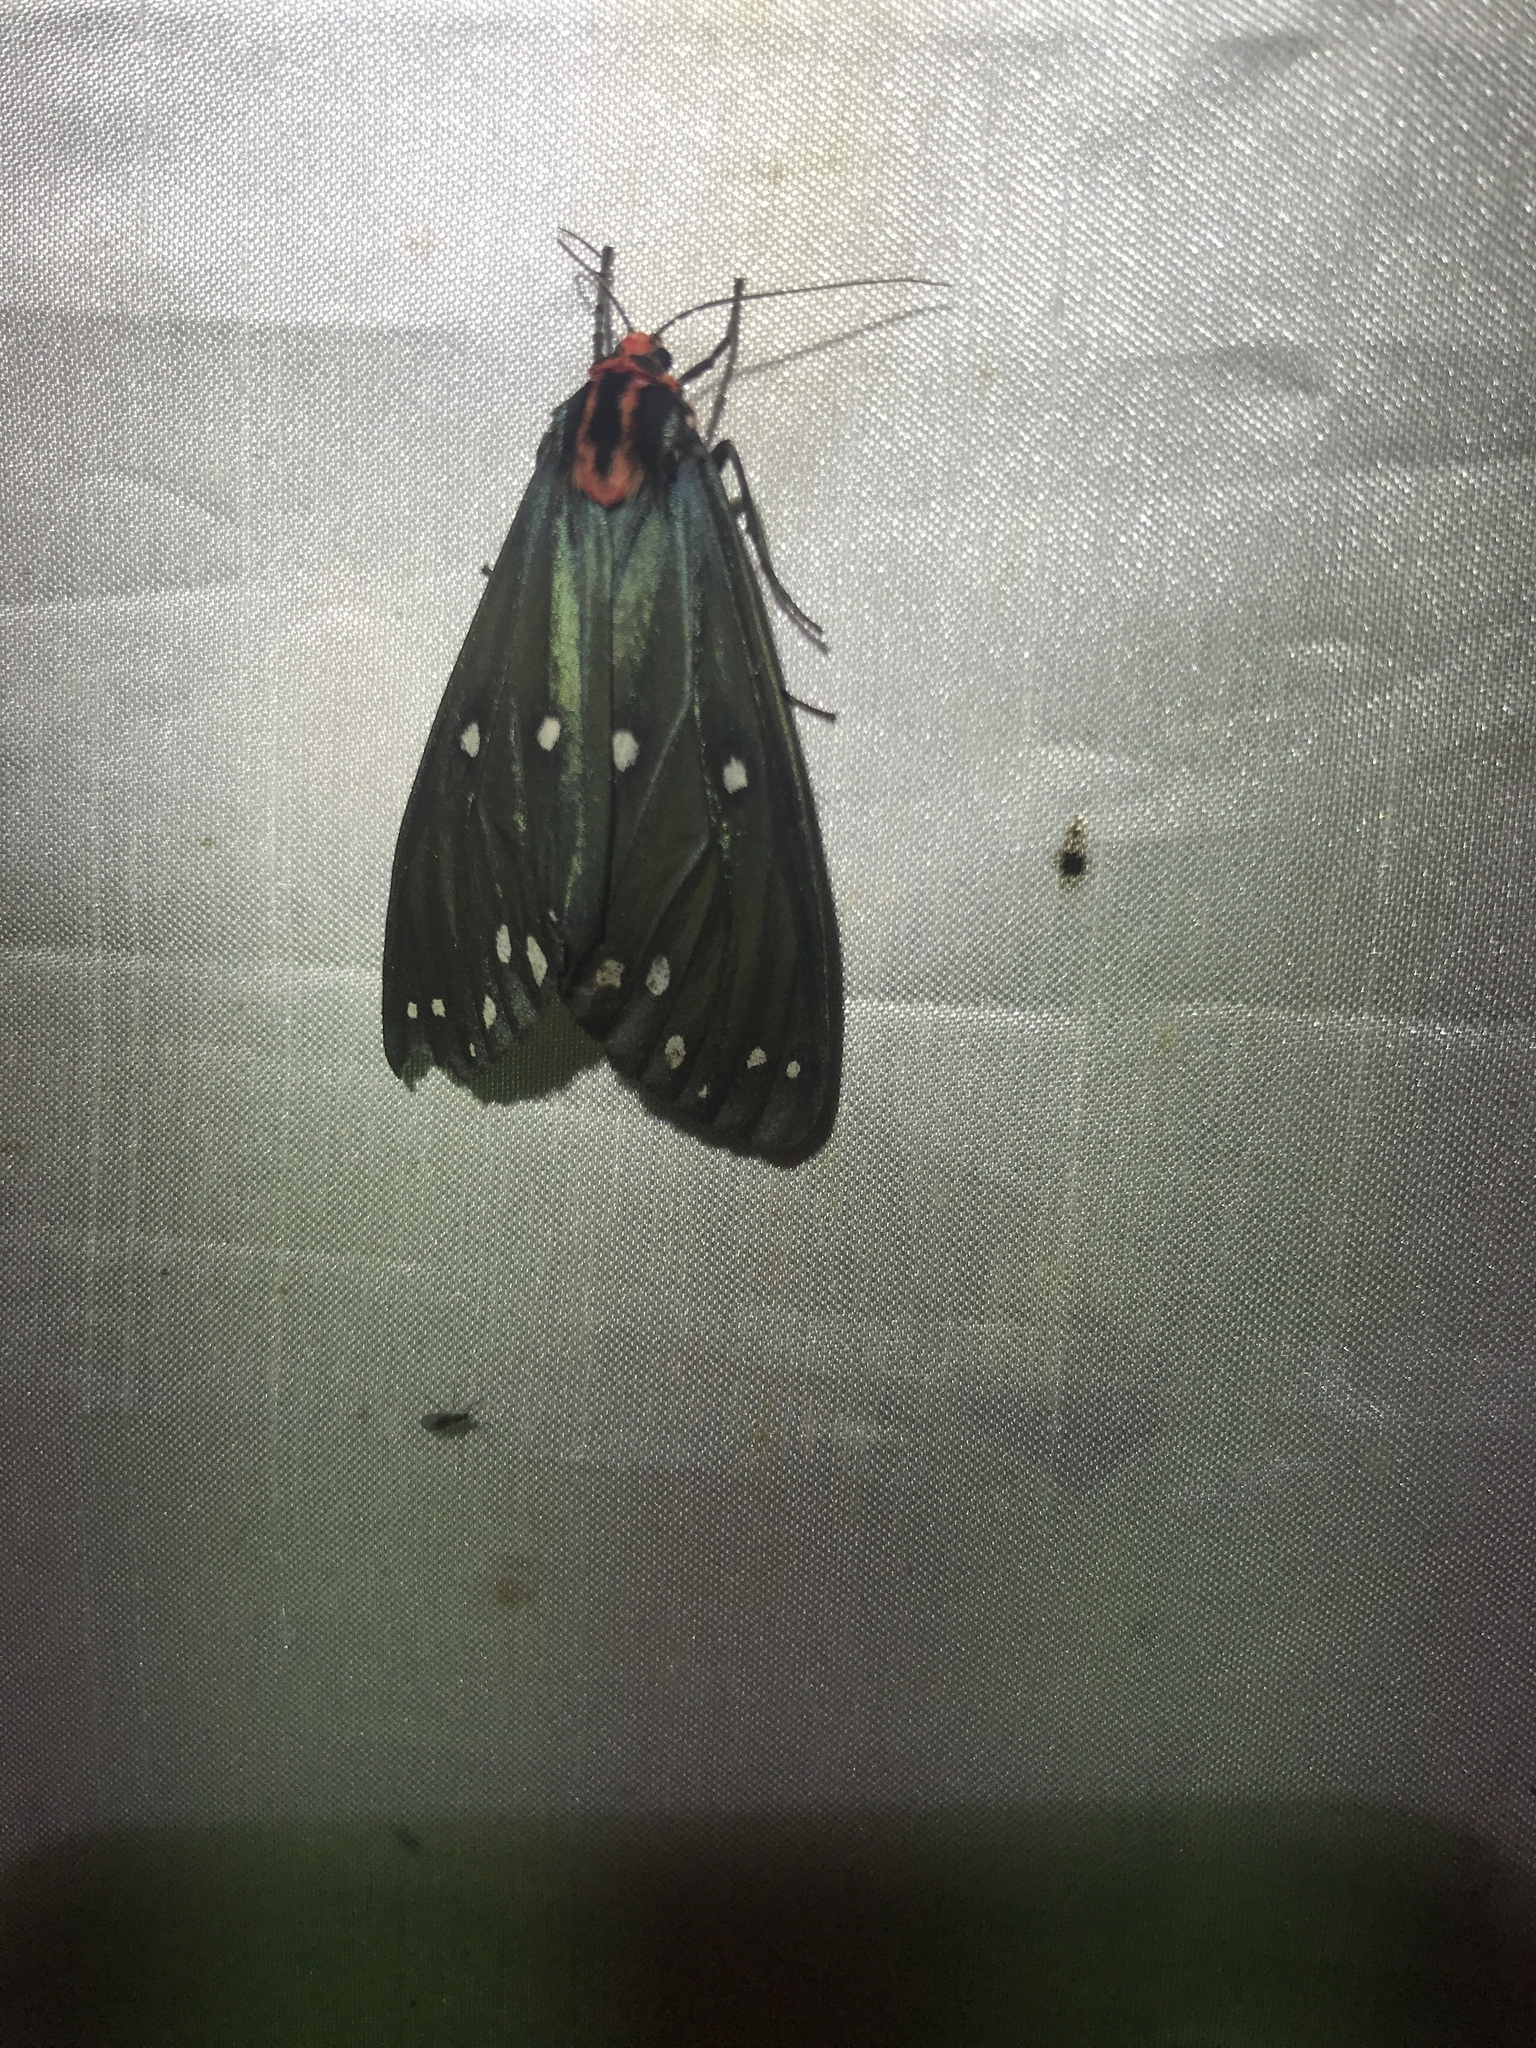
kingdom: Animalia
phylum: Arthropoda
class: Insecta
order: Lepidoptera
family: Erebidae
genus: Taicallimorpha
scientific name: Taicallimorpha albipuncta
